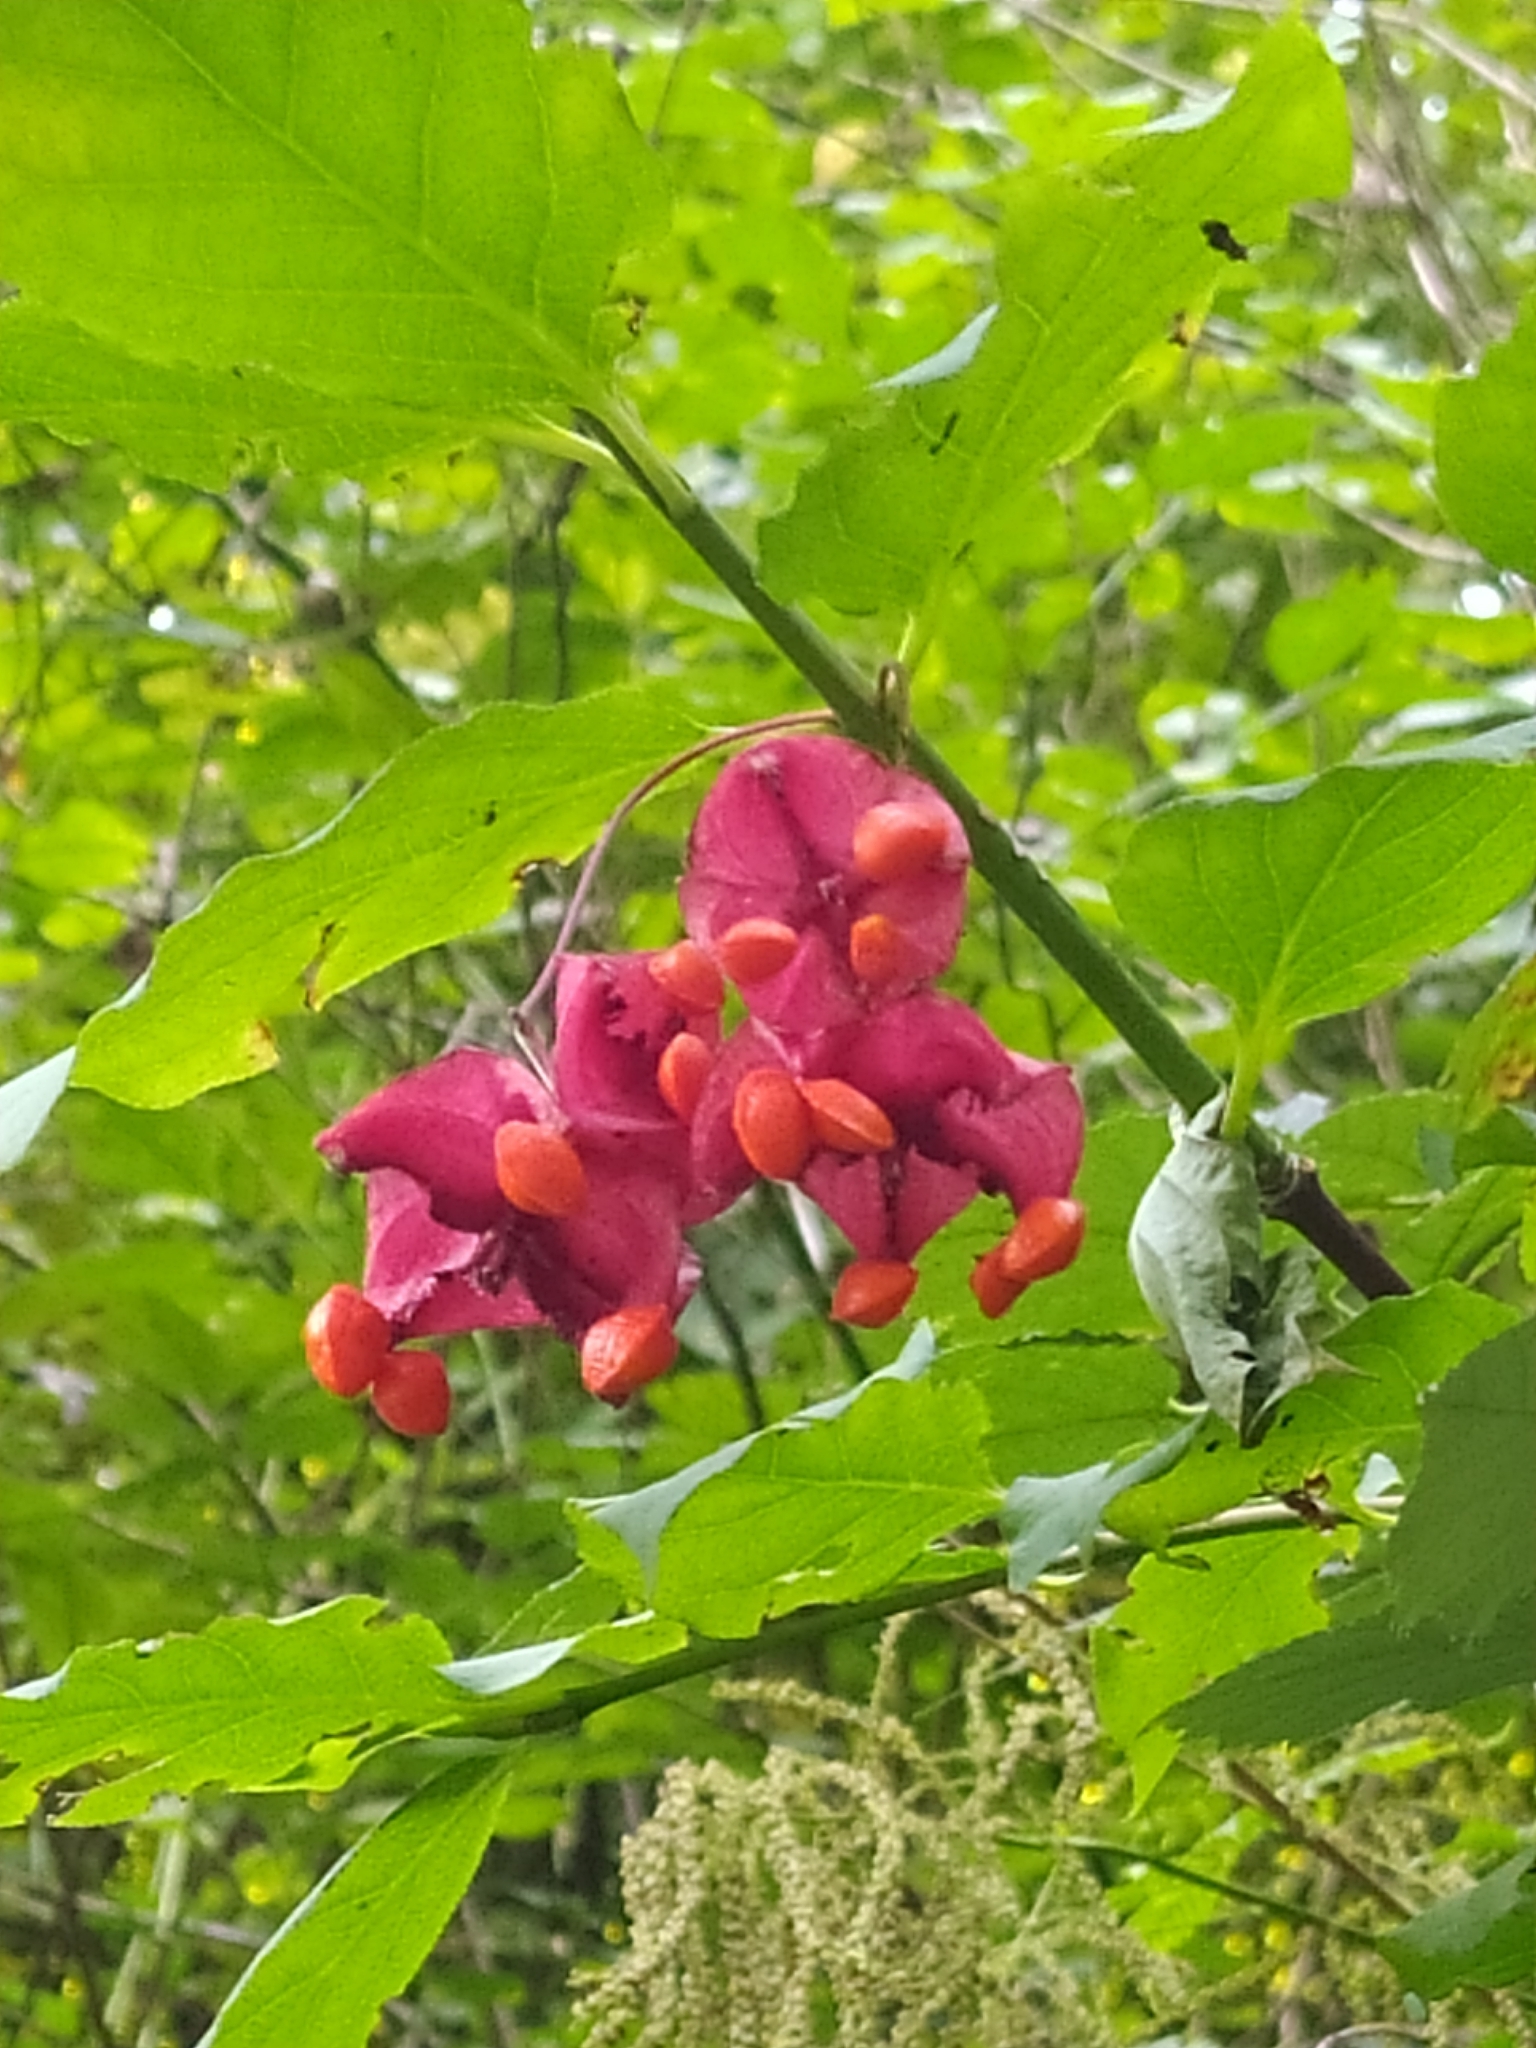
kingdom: Plantae
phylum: Tracheophyta
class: Magnoliopsida
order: Celastrales
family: Celastraceae
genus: Euonymus
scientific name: Euonymus latifolius
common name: Large-leaved spindle
